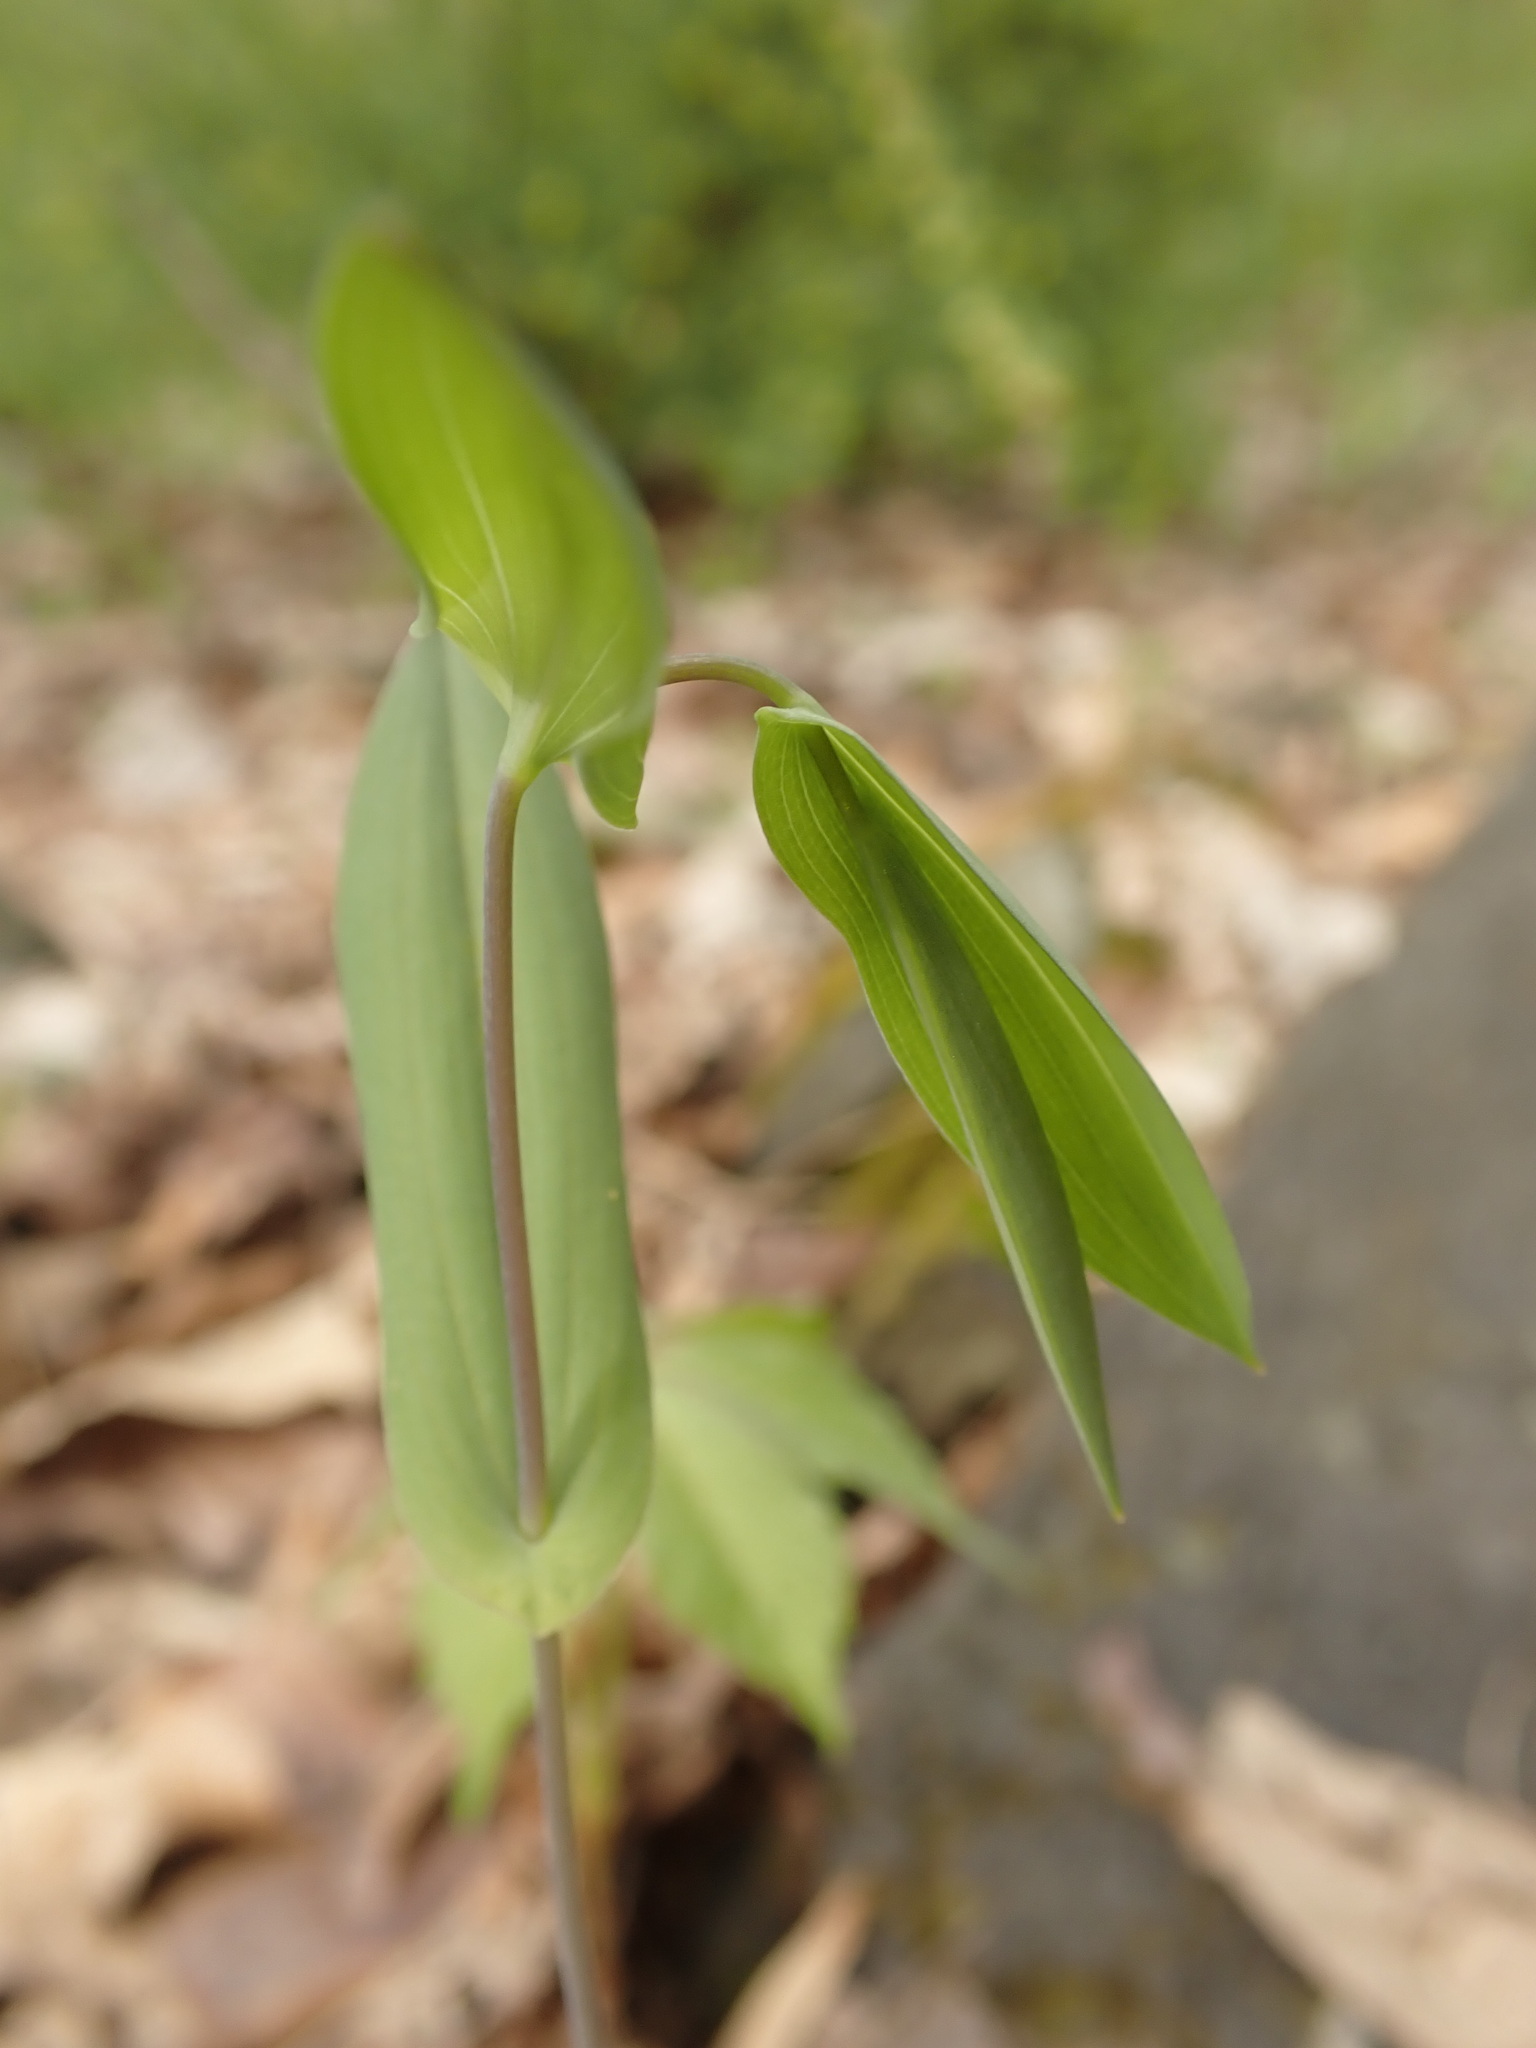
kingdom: Plantae
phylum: Tracheophyta
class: Liliopsida
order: Liliales
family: Colchicaceae
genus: Uvularia
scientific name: Uvularia perfoliata
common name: Perfoliate bellwort
